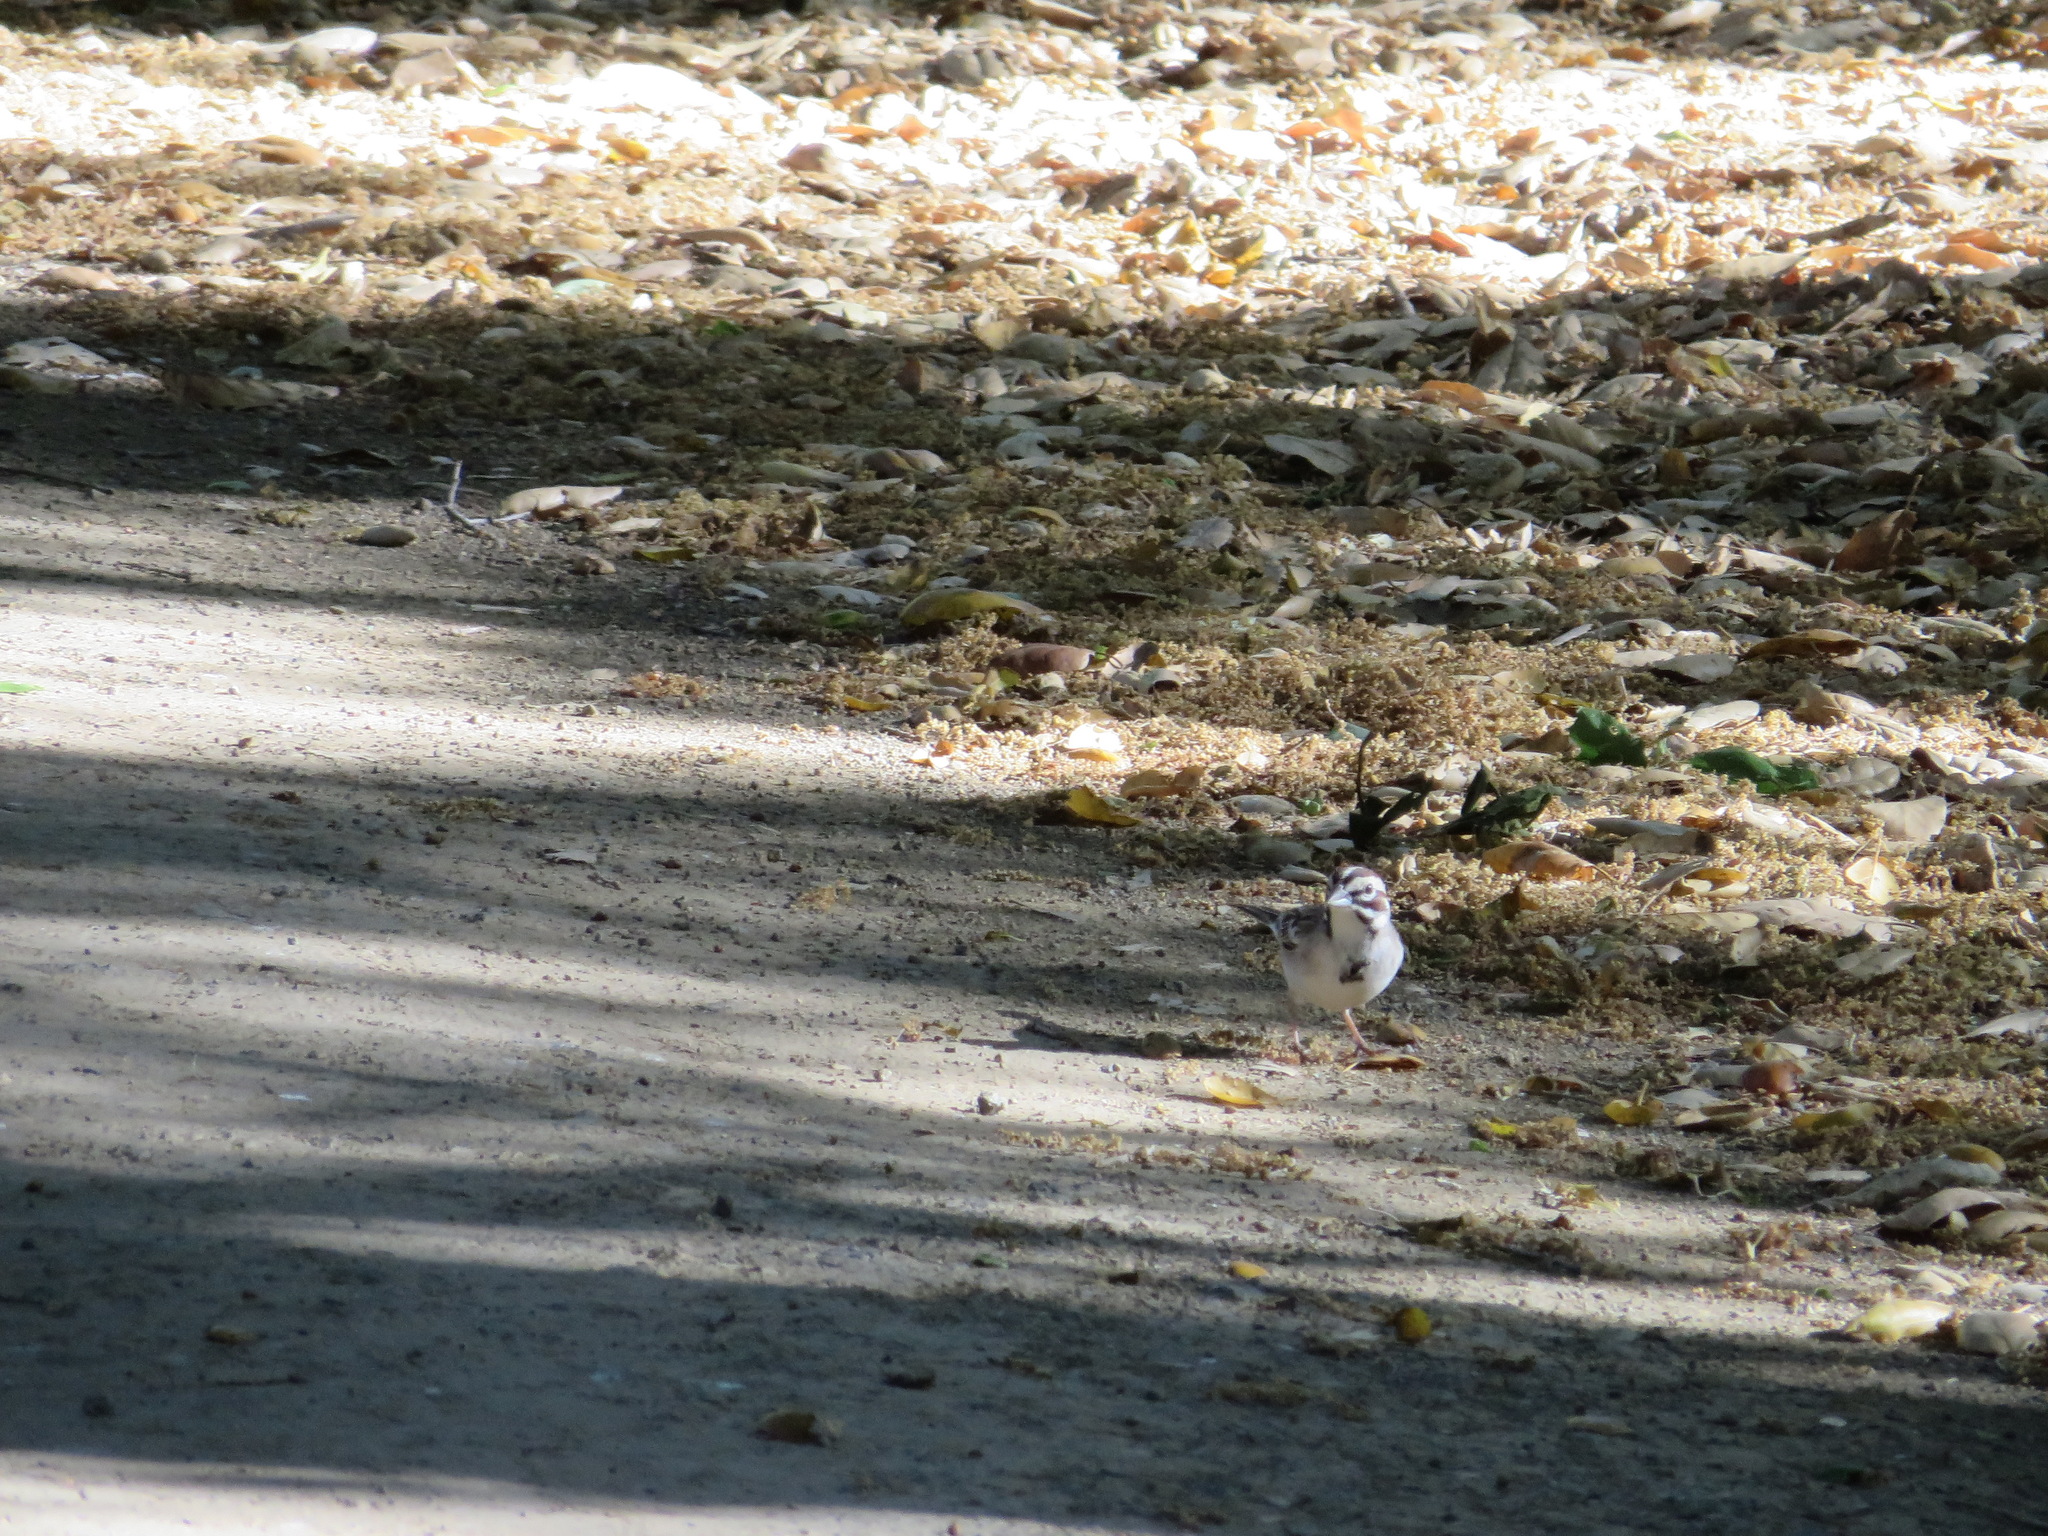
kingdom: Animalia
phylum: Chordata
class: Aves
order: Passeriformes
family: Passerellidae
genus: Chondestes
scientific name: Chondestes grammacus
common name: Lark sparrow
